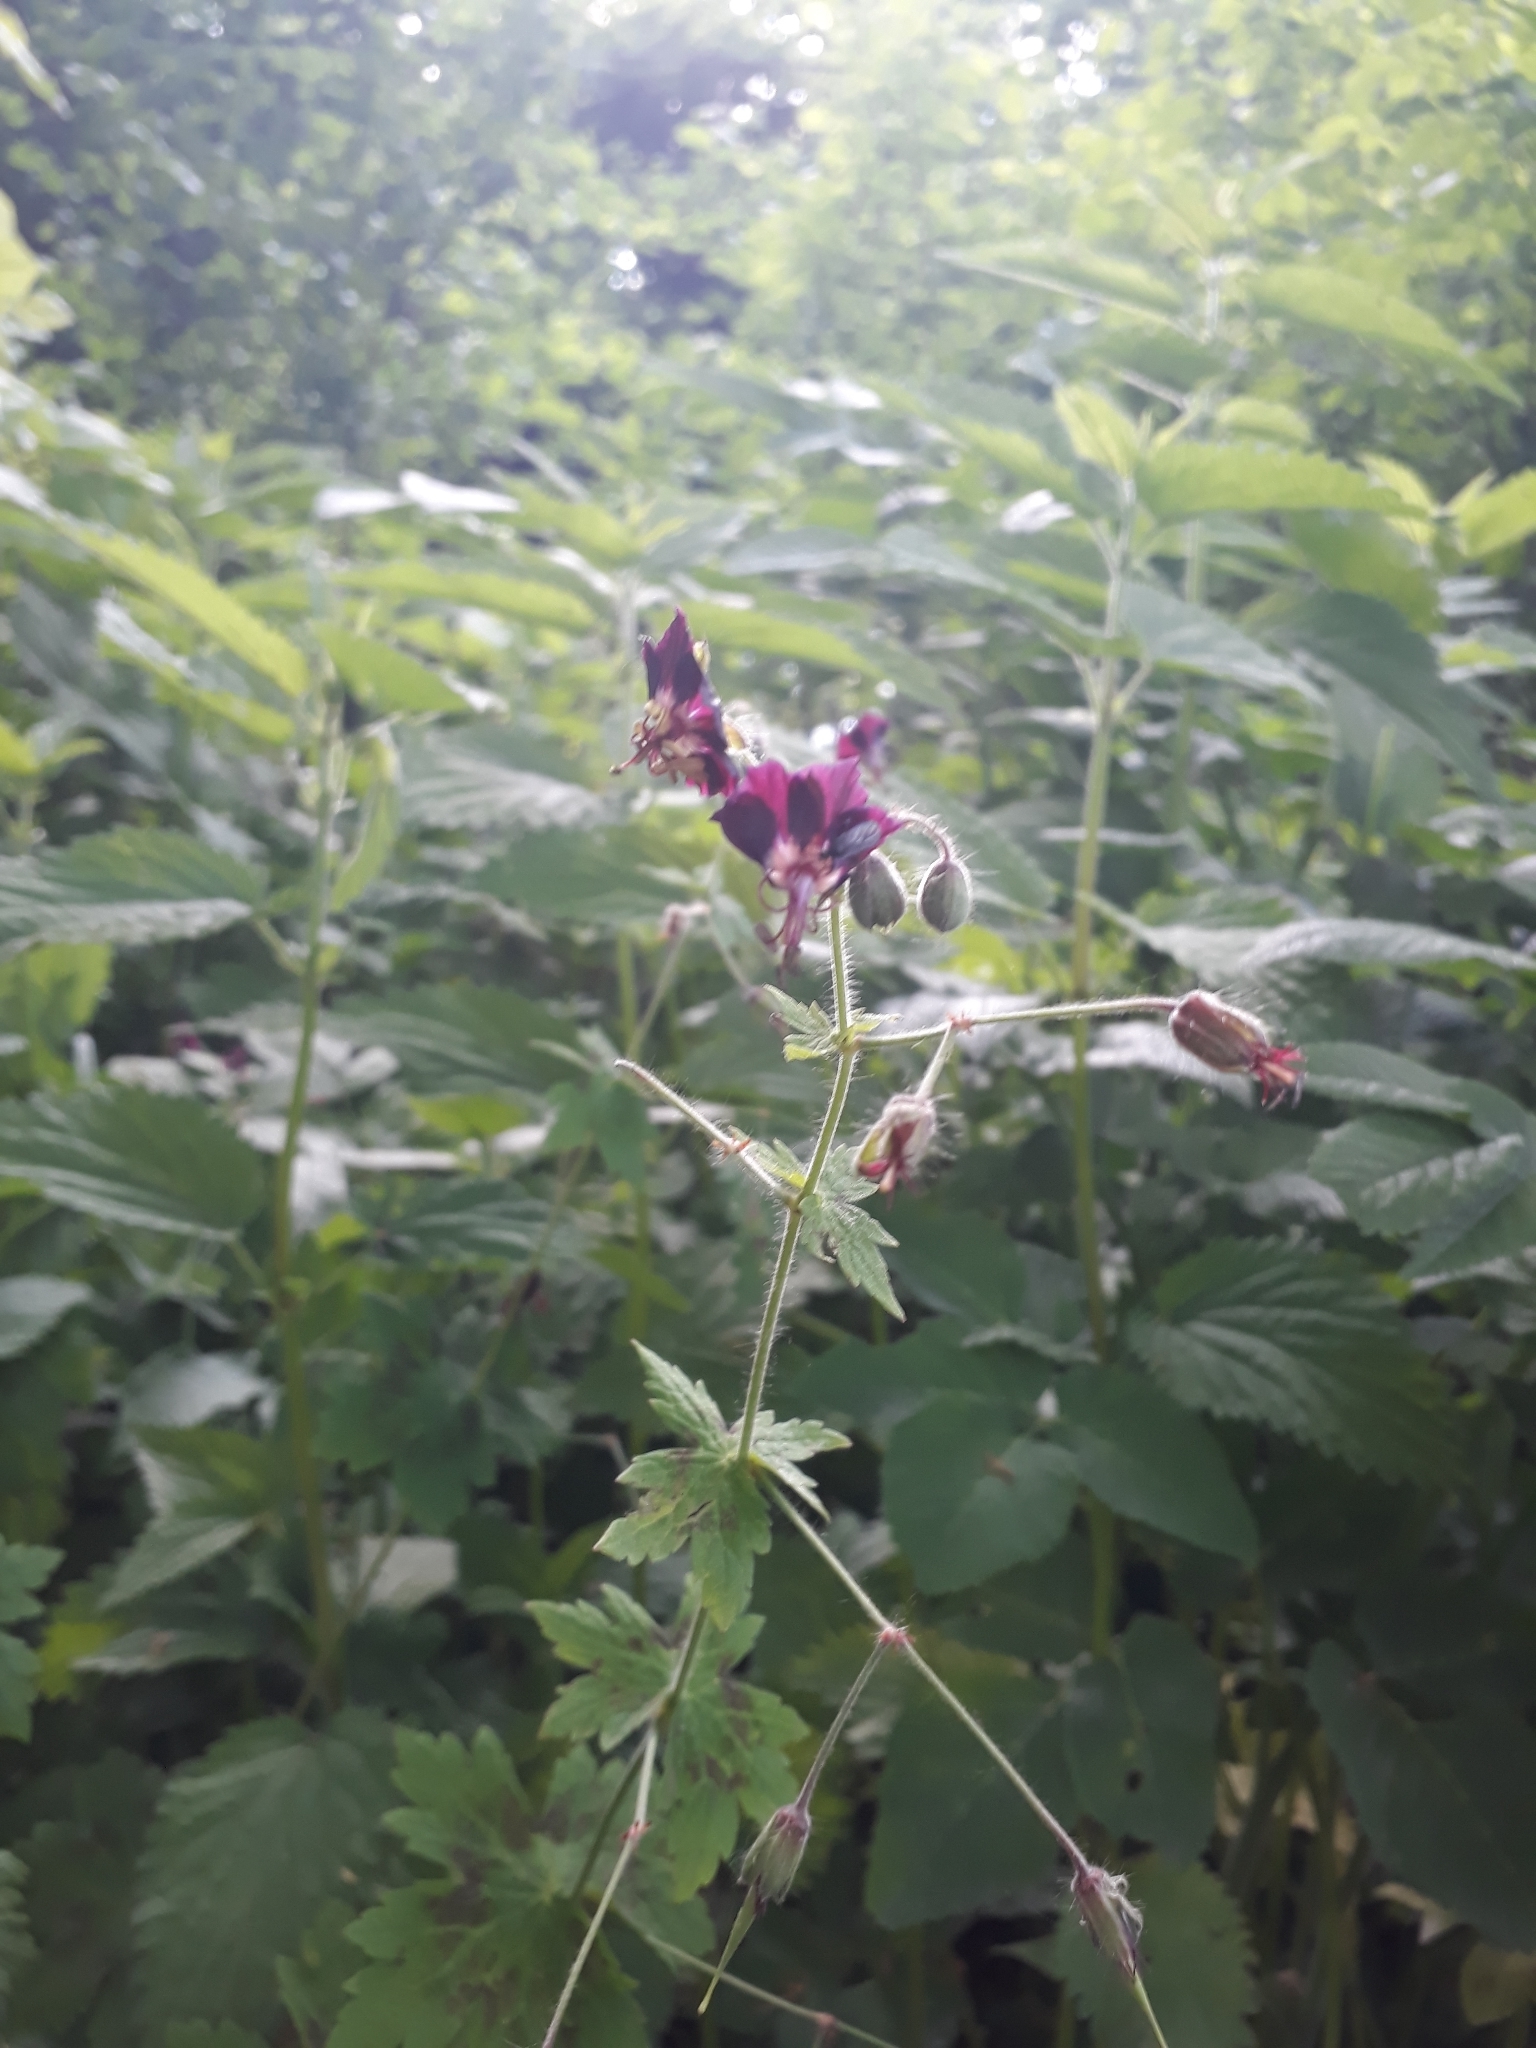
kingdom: Plantae
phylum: Tracheophyta
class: Magnoliopsida
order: Geraniales
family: Geraniaceae
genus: Geranium
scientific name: Geranium phaeum
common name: Dusky crane's-bill
